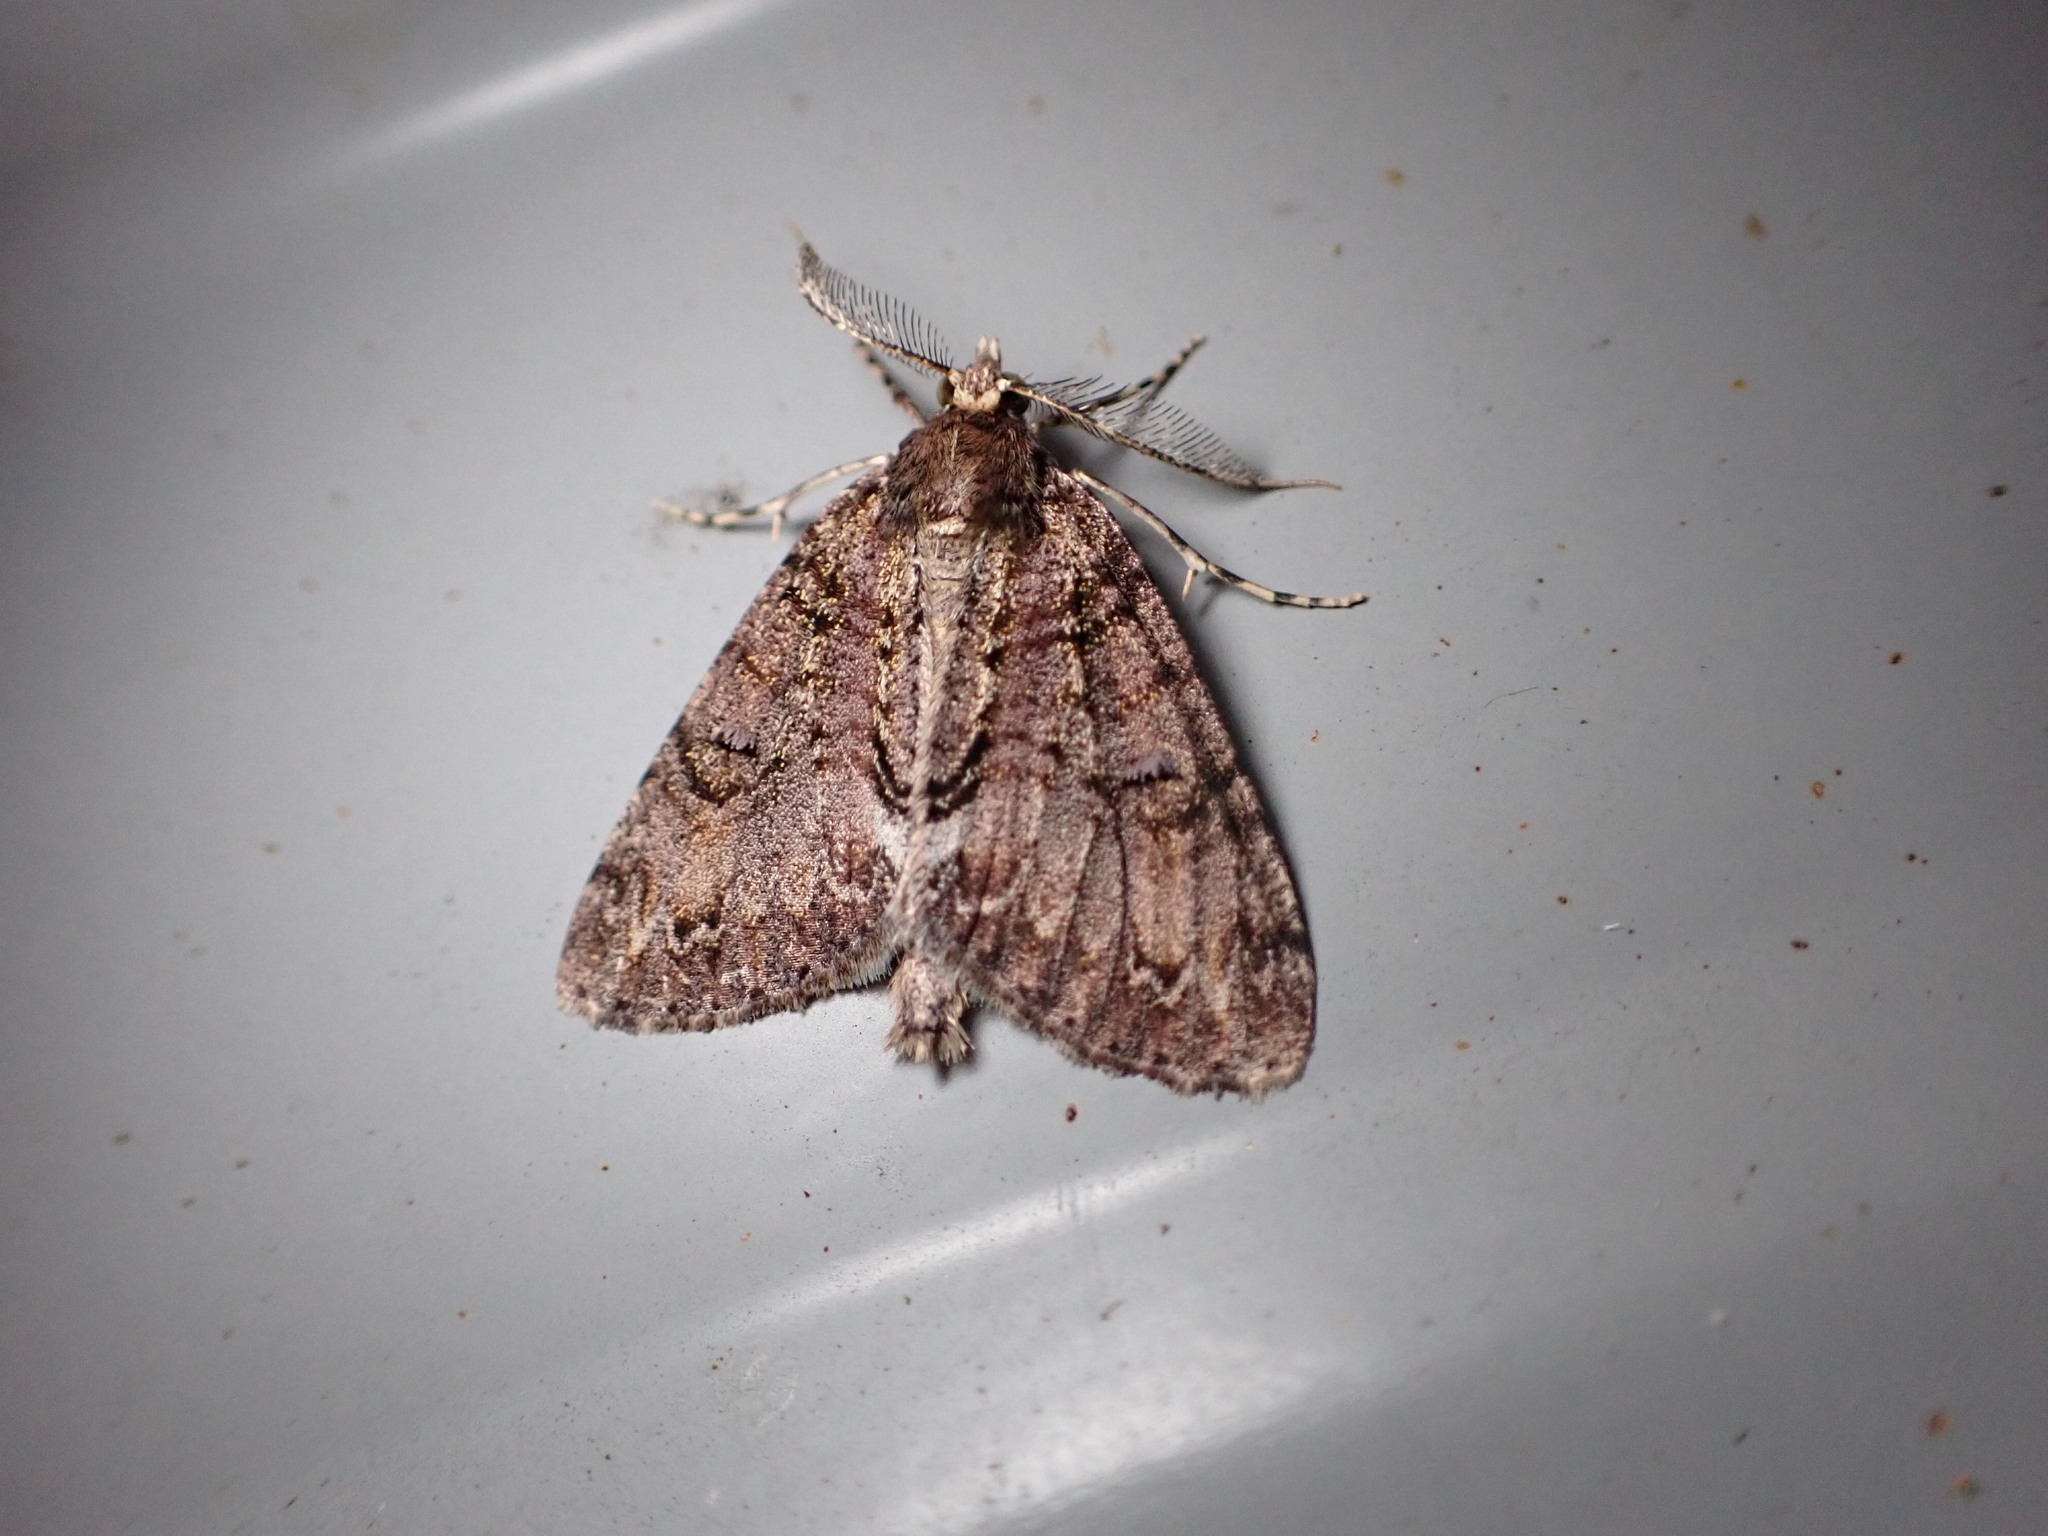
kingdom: Animalia
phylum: Arthropoda
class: Insecta
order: Lepidoptera
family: Geometridae
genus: Pseudocoremia
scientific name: Pseudocoremia suavis
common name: Common forest looper
